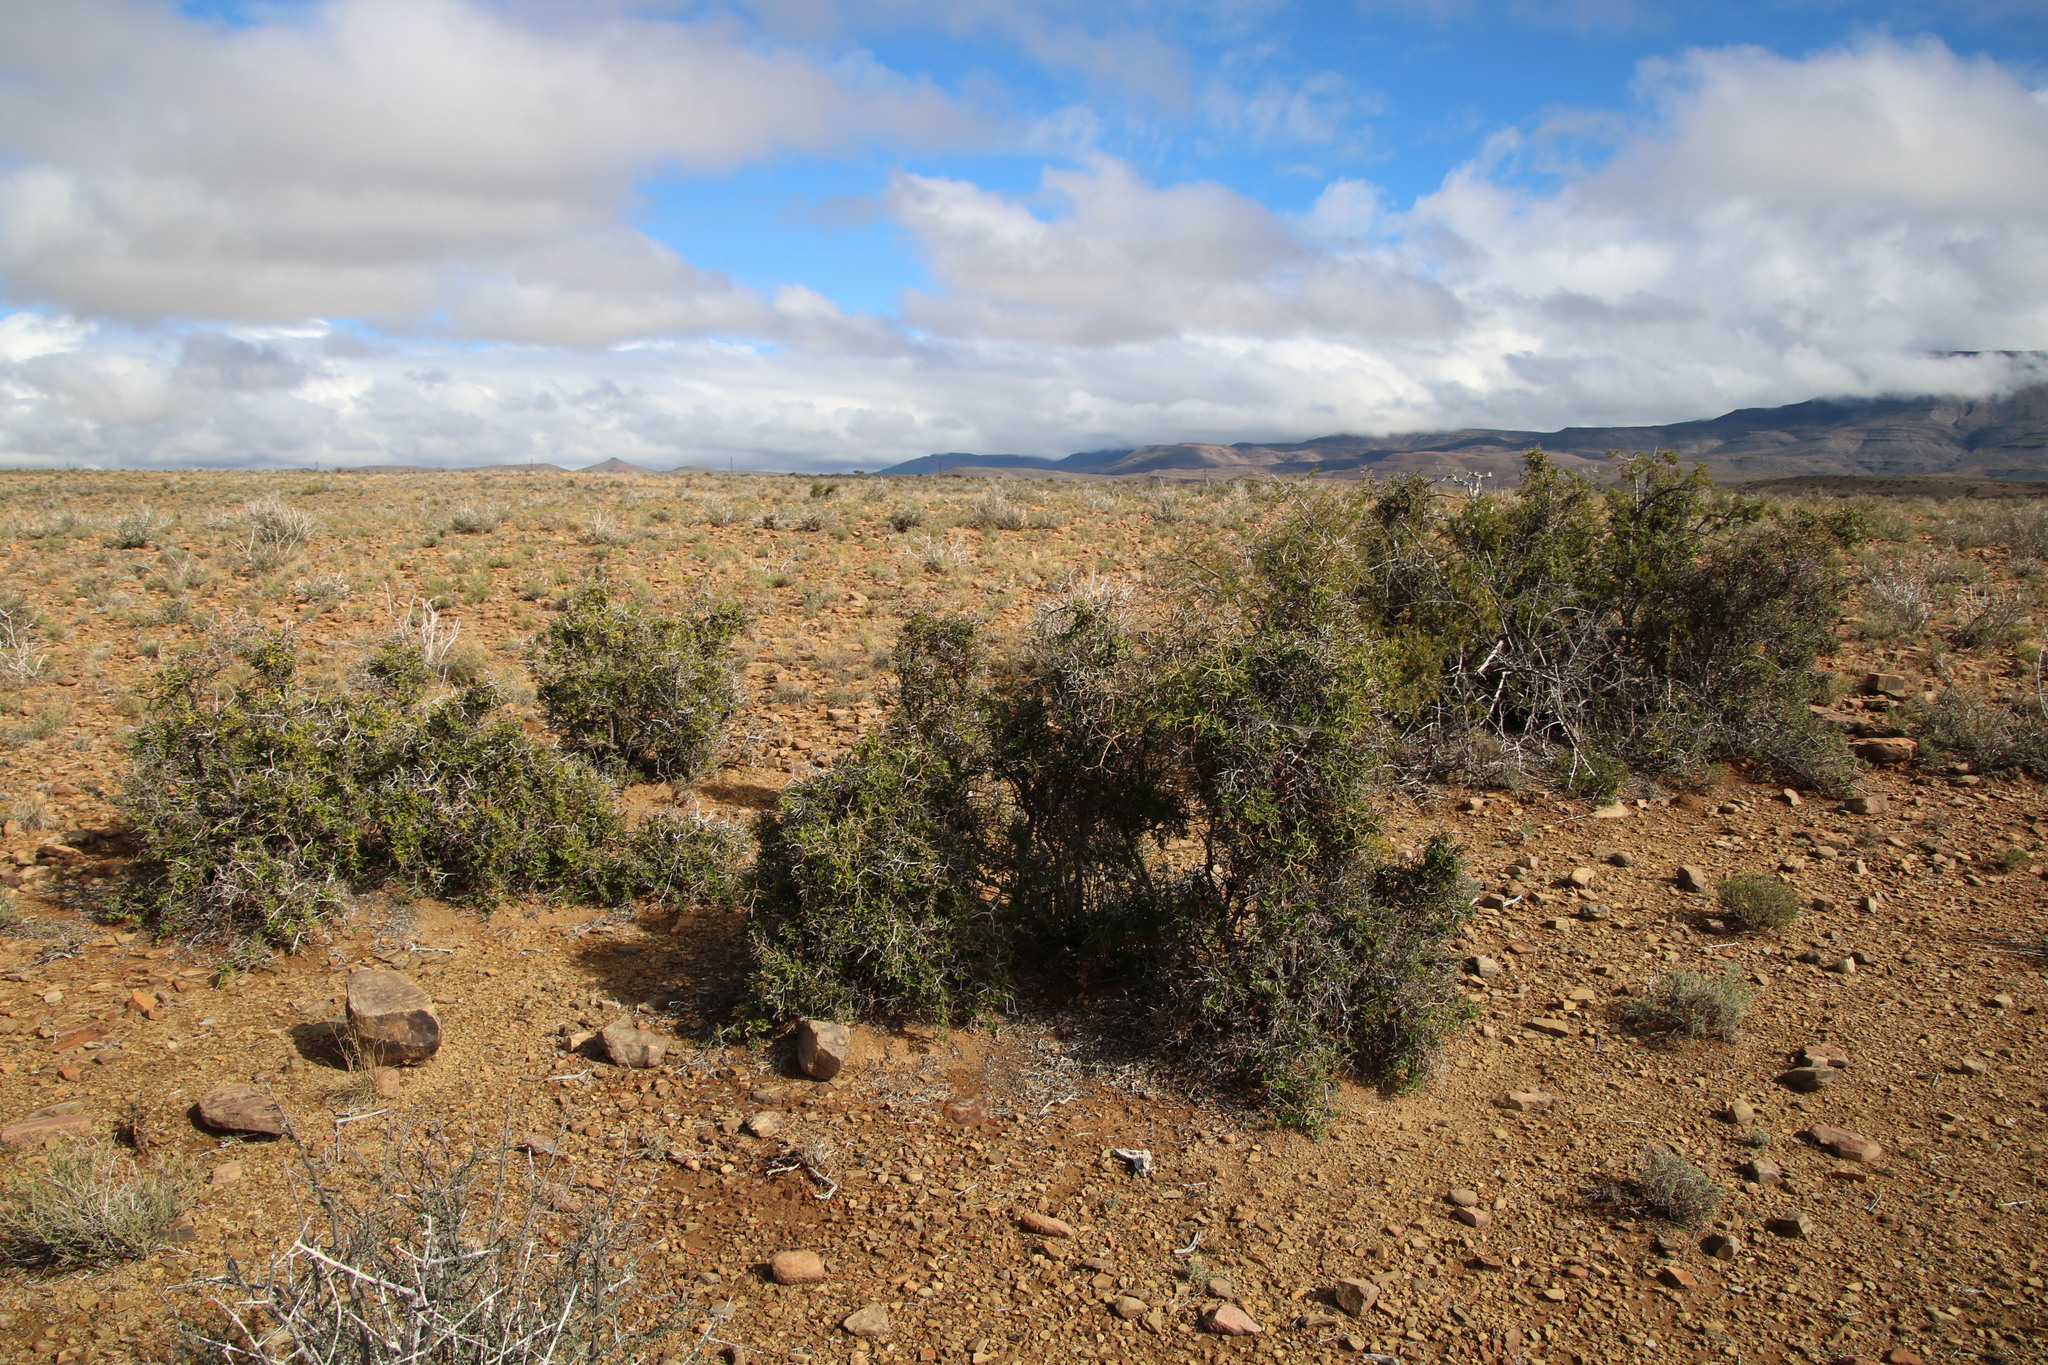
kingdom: Plantae
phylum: Tracheophyta
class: Magnoliopsida
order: Gentianales
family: Apocynaceae
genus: Carissa
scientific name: Carissa haematocarpa
